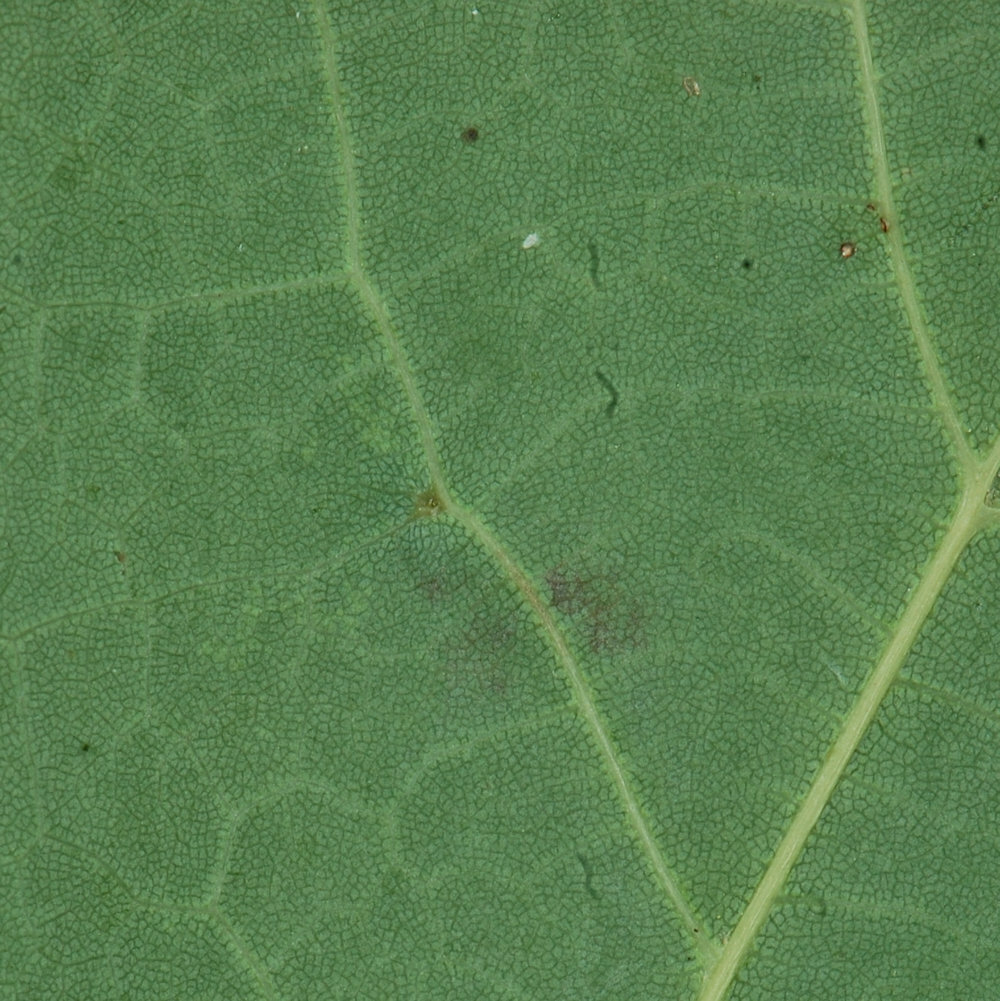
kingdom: Animalia
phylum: Arthropoda
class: Arachnida
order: Trombidiformes
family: Eriophyidae
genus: Vasates
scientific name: Vasates aceriscrumena
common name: Maple spindle gall mite
